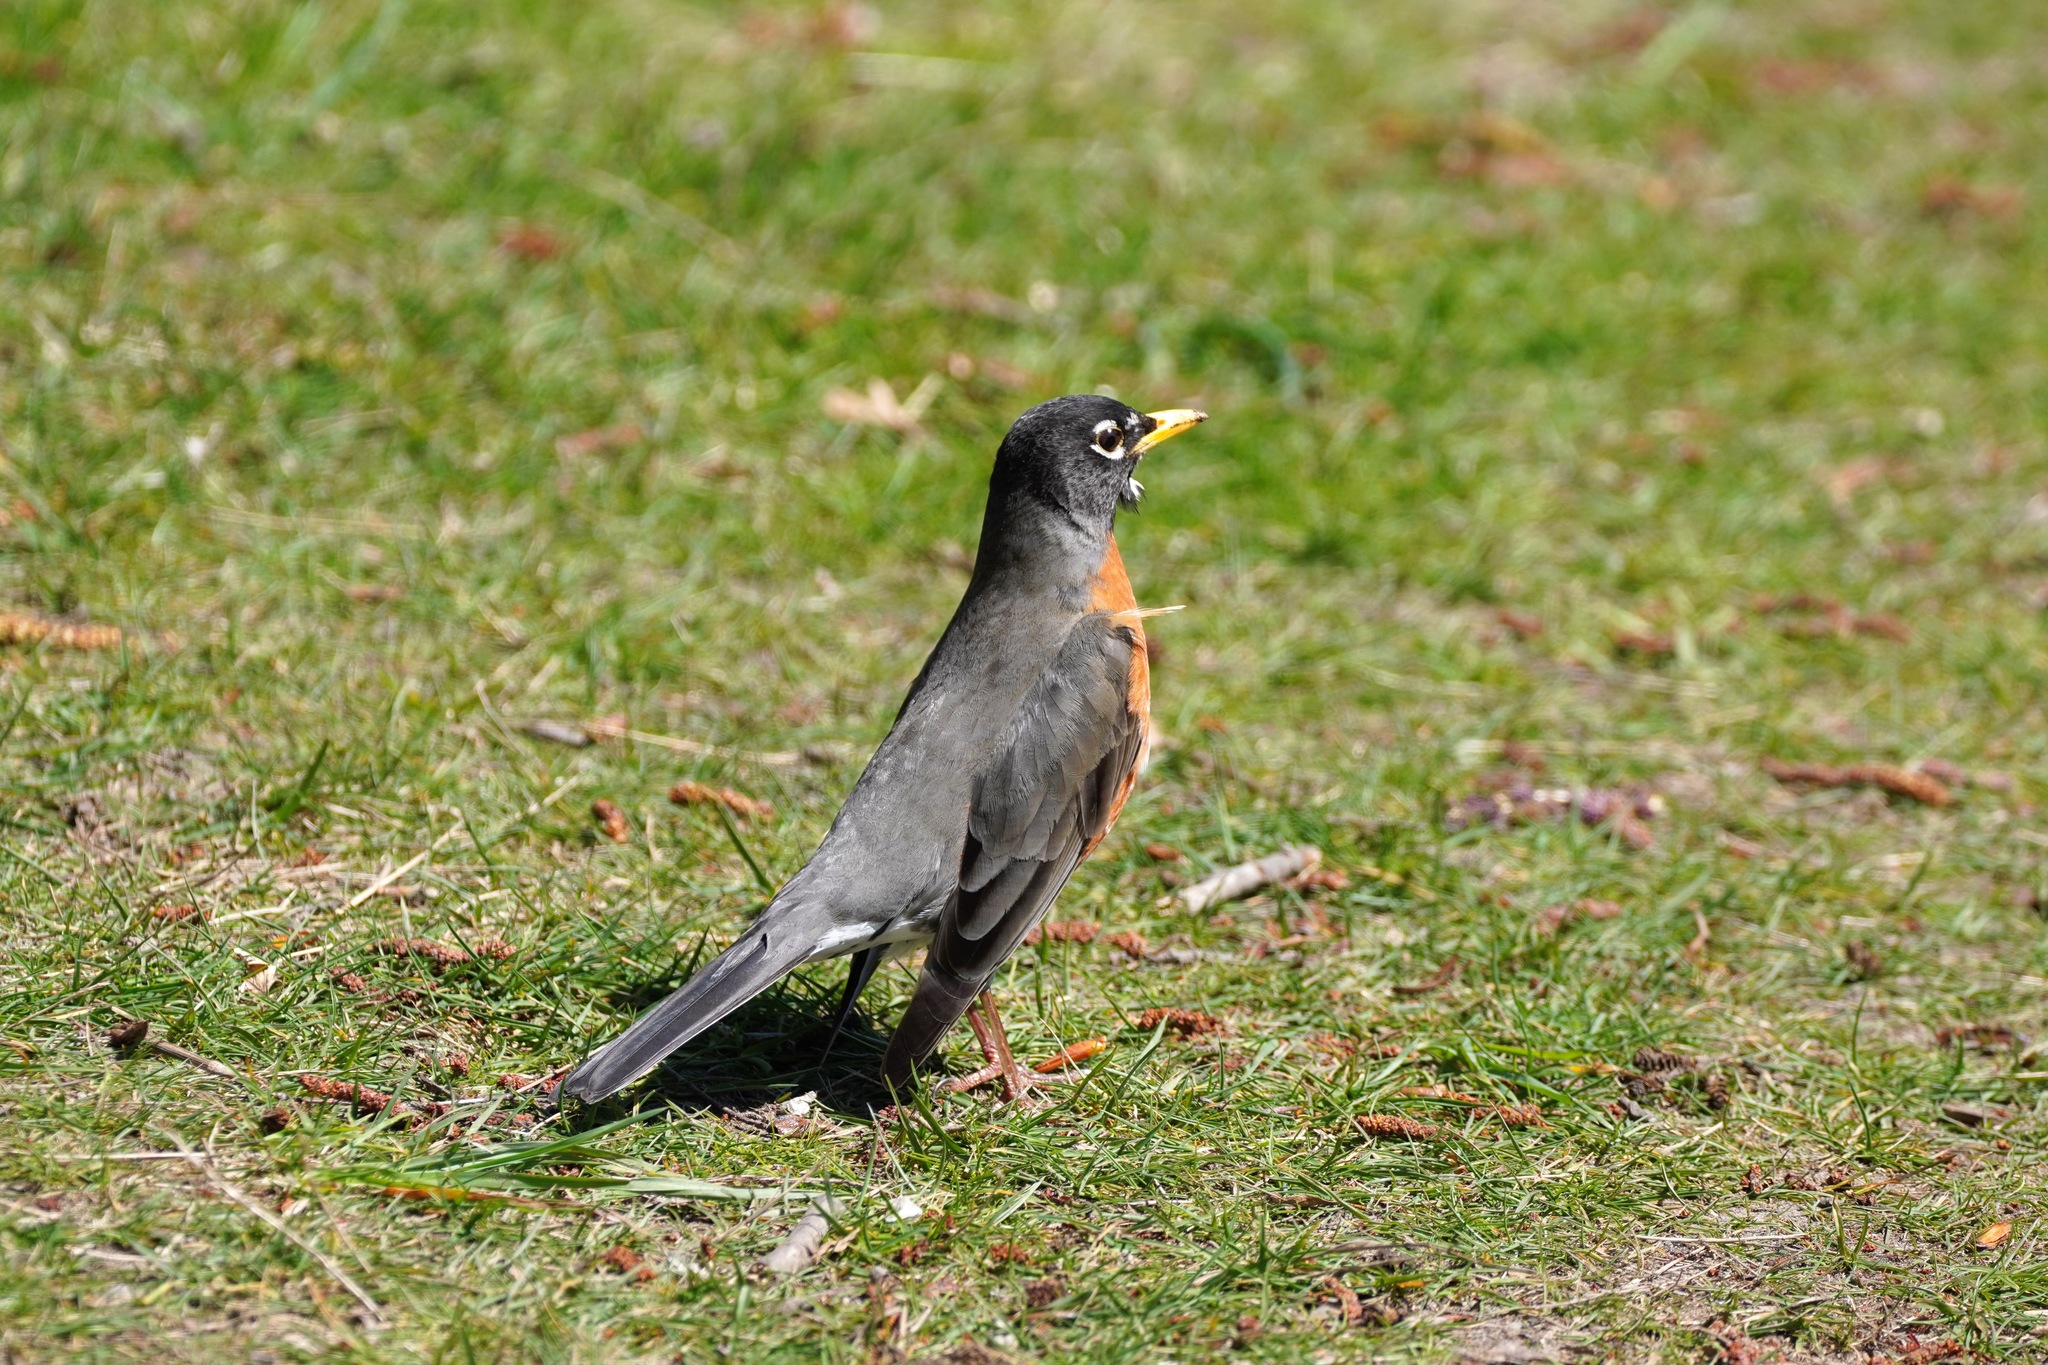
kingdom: Animalia
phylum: Chordata
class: Aves
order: Passeriformes
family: Turdidae
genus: Turdus
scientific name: Turdus migratorius
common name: American robin
